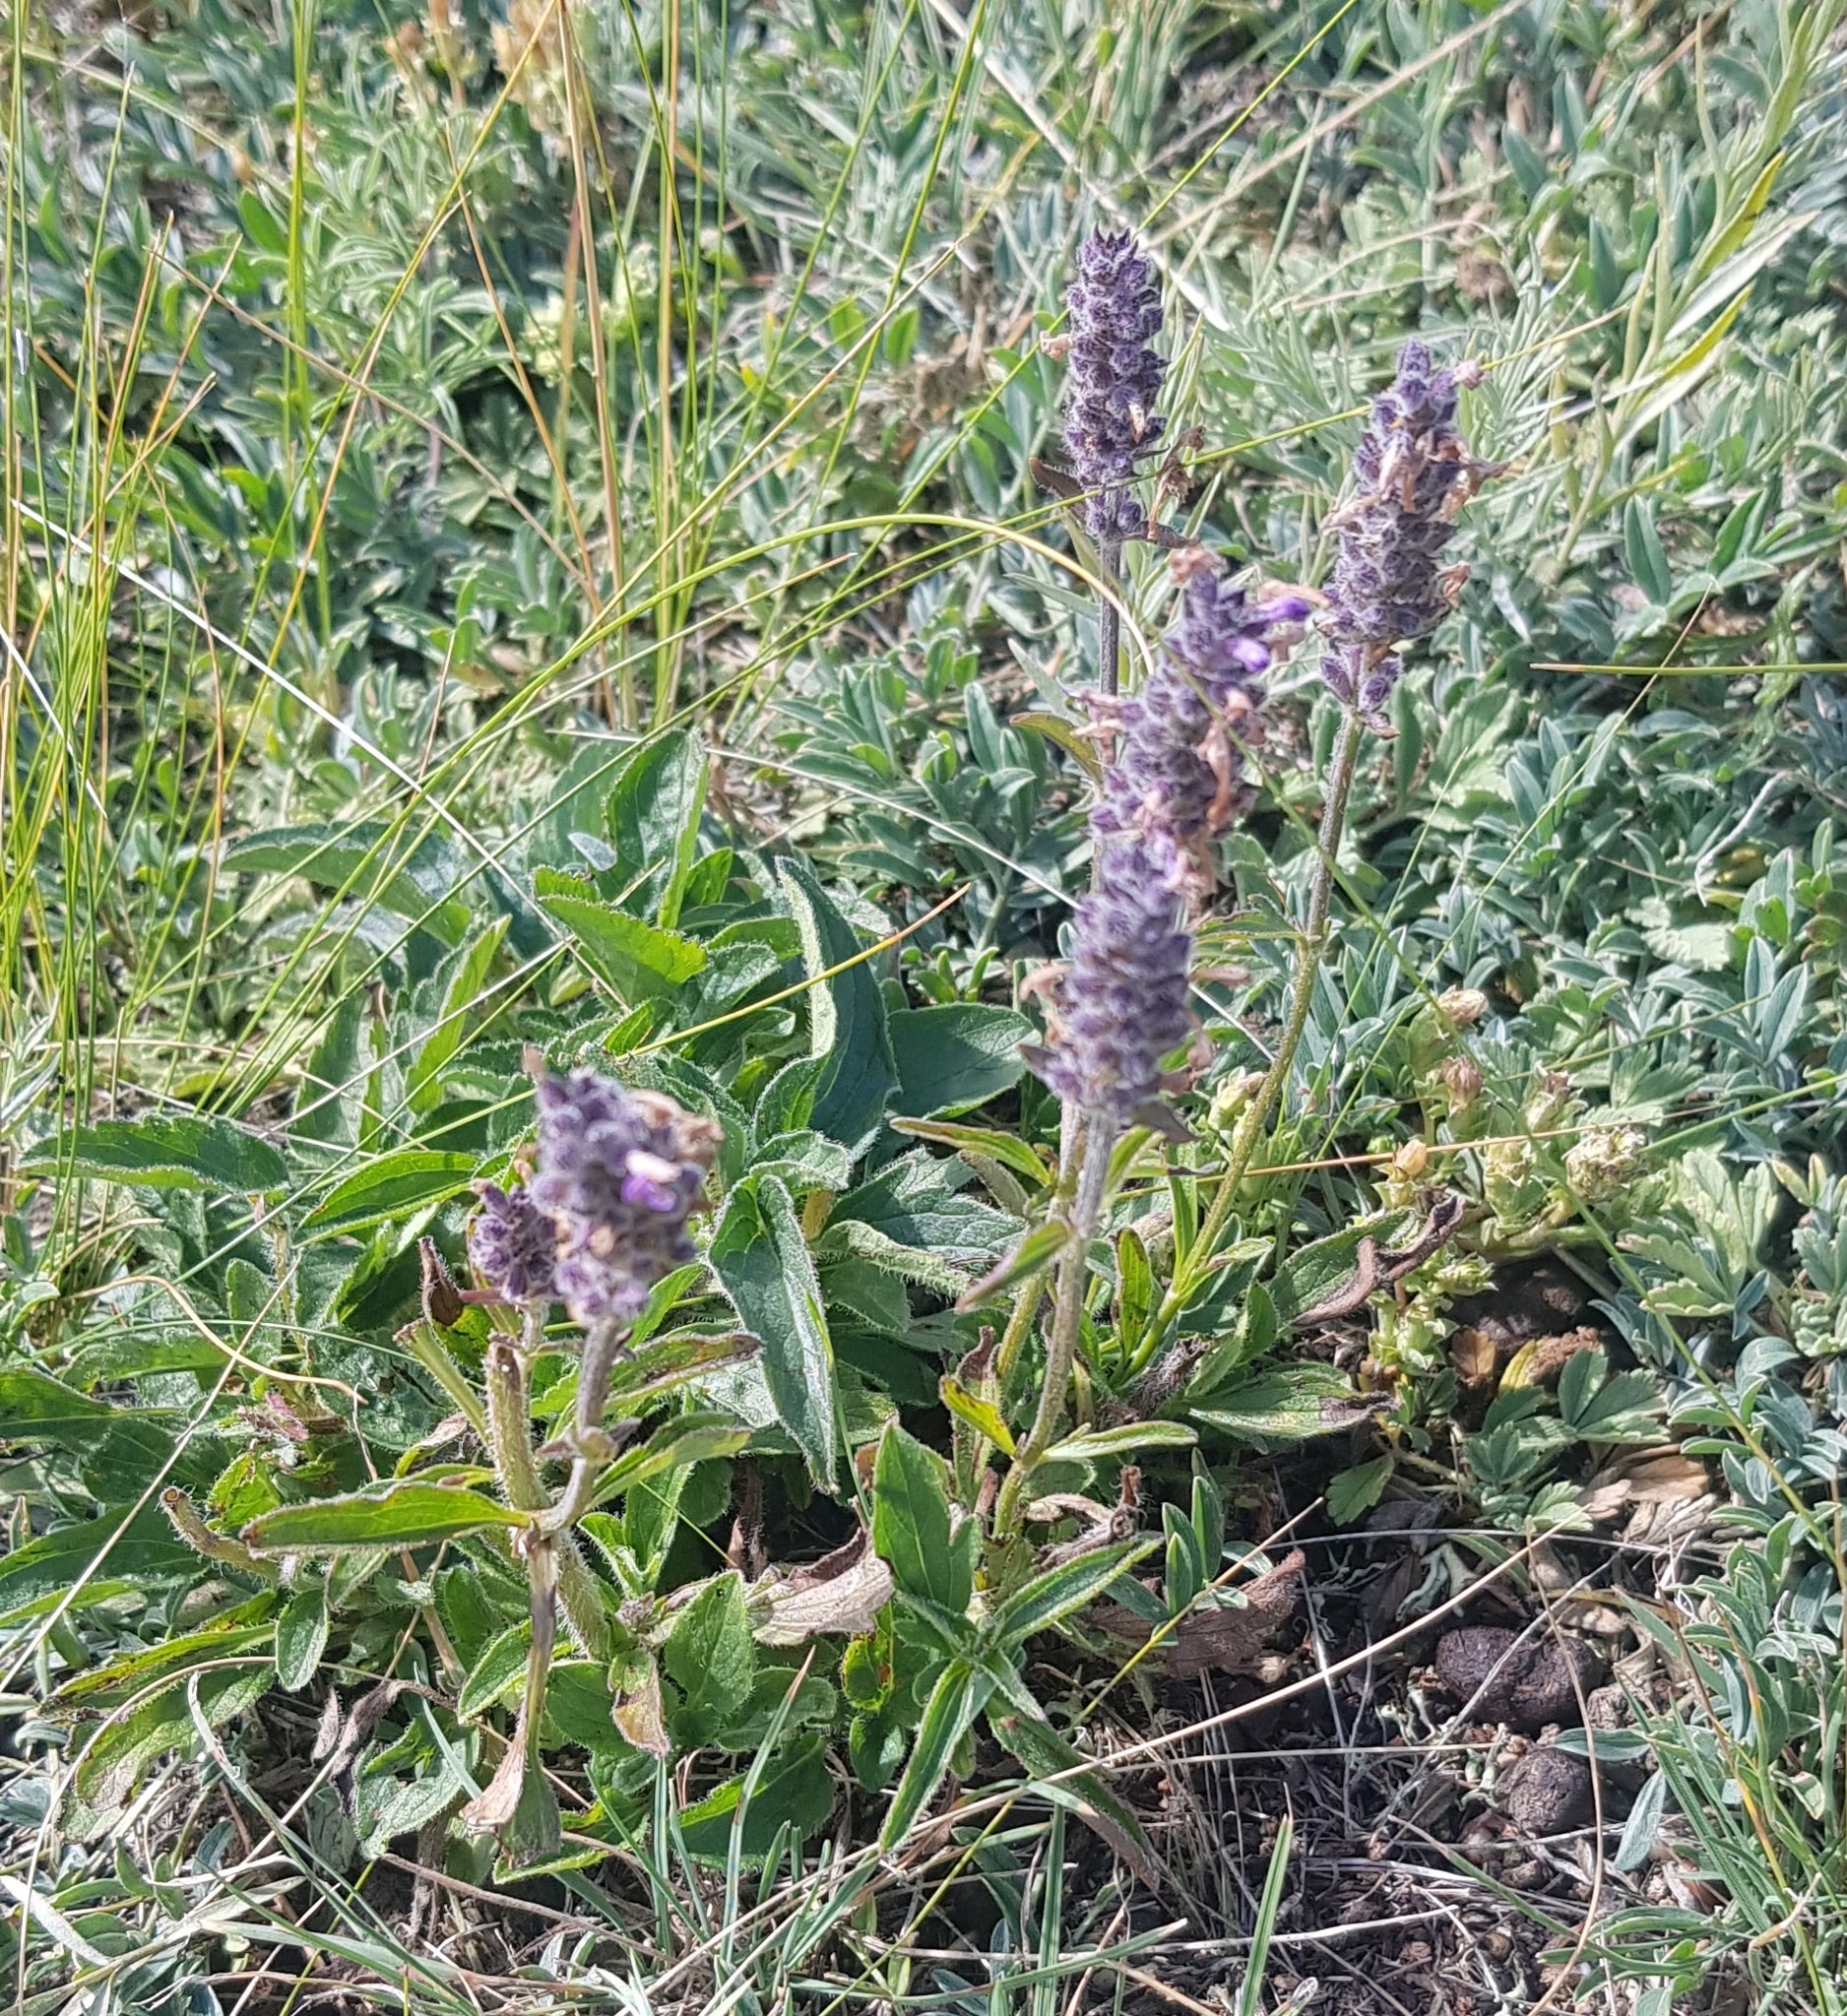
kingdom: Plantae
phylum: Tracheophyta
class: Magnoliopsida
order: Lamiales
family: Lamiaceae
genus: Nepeta
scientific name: Nepeta multifida
